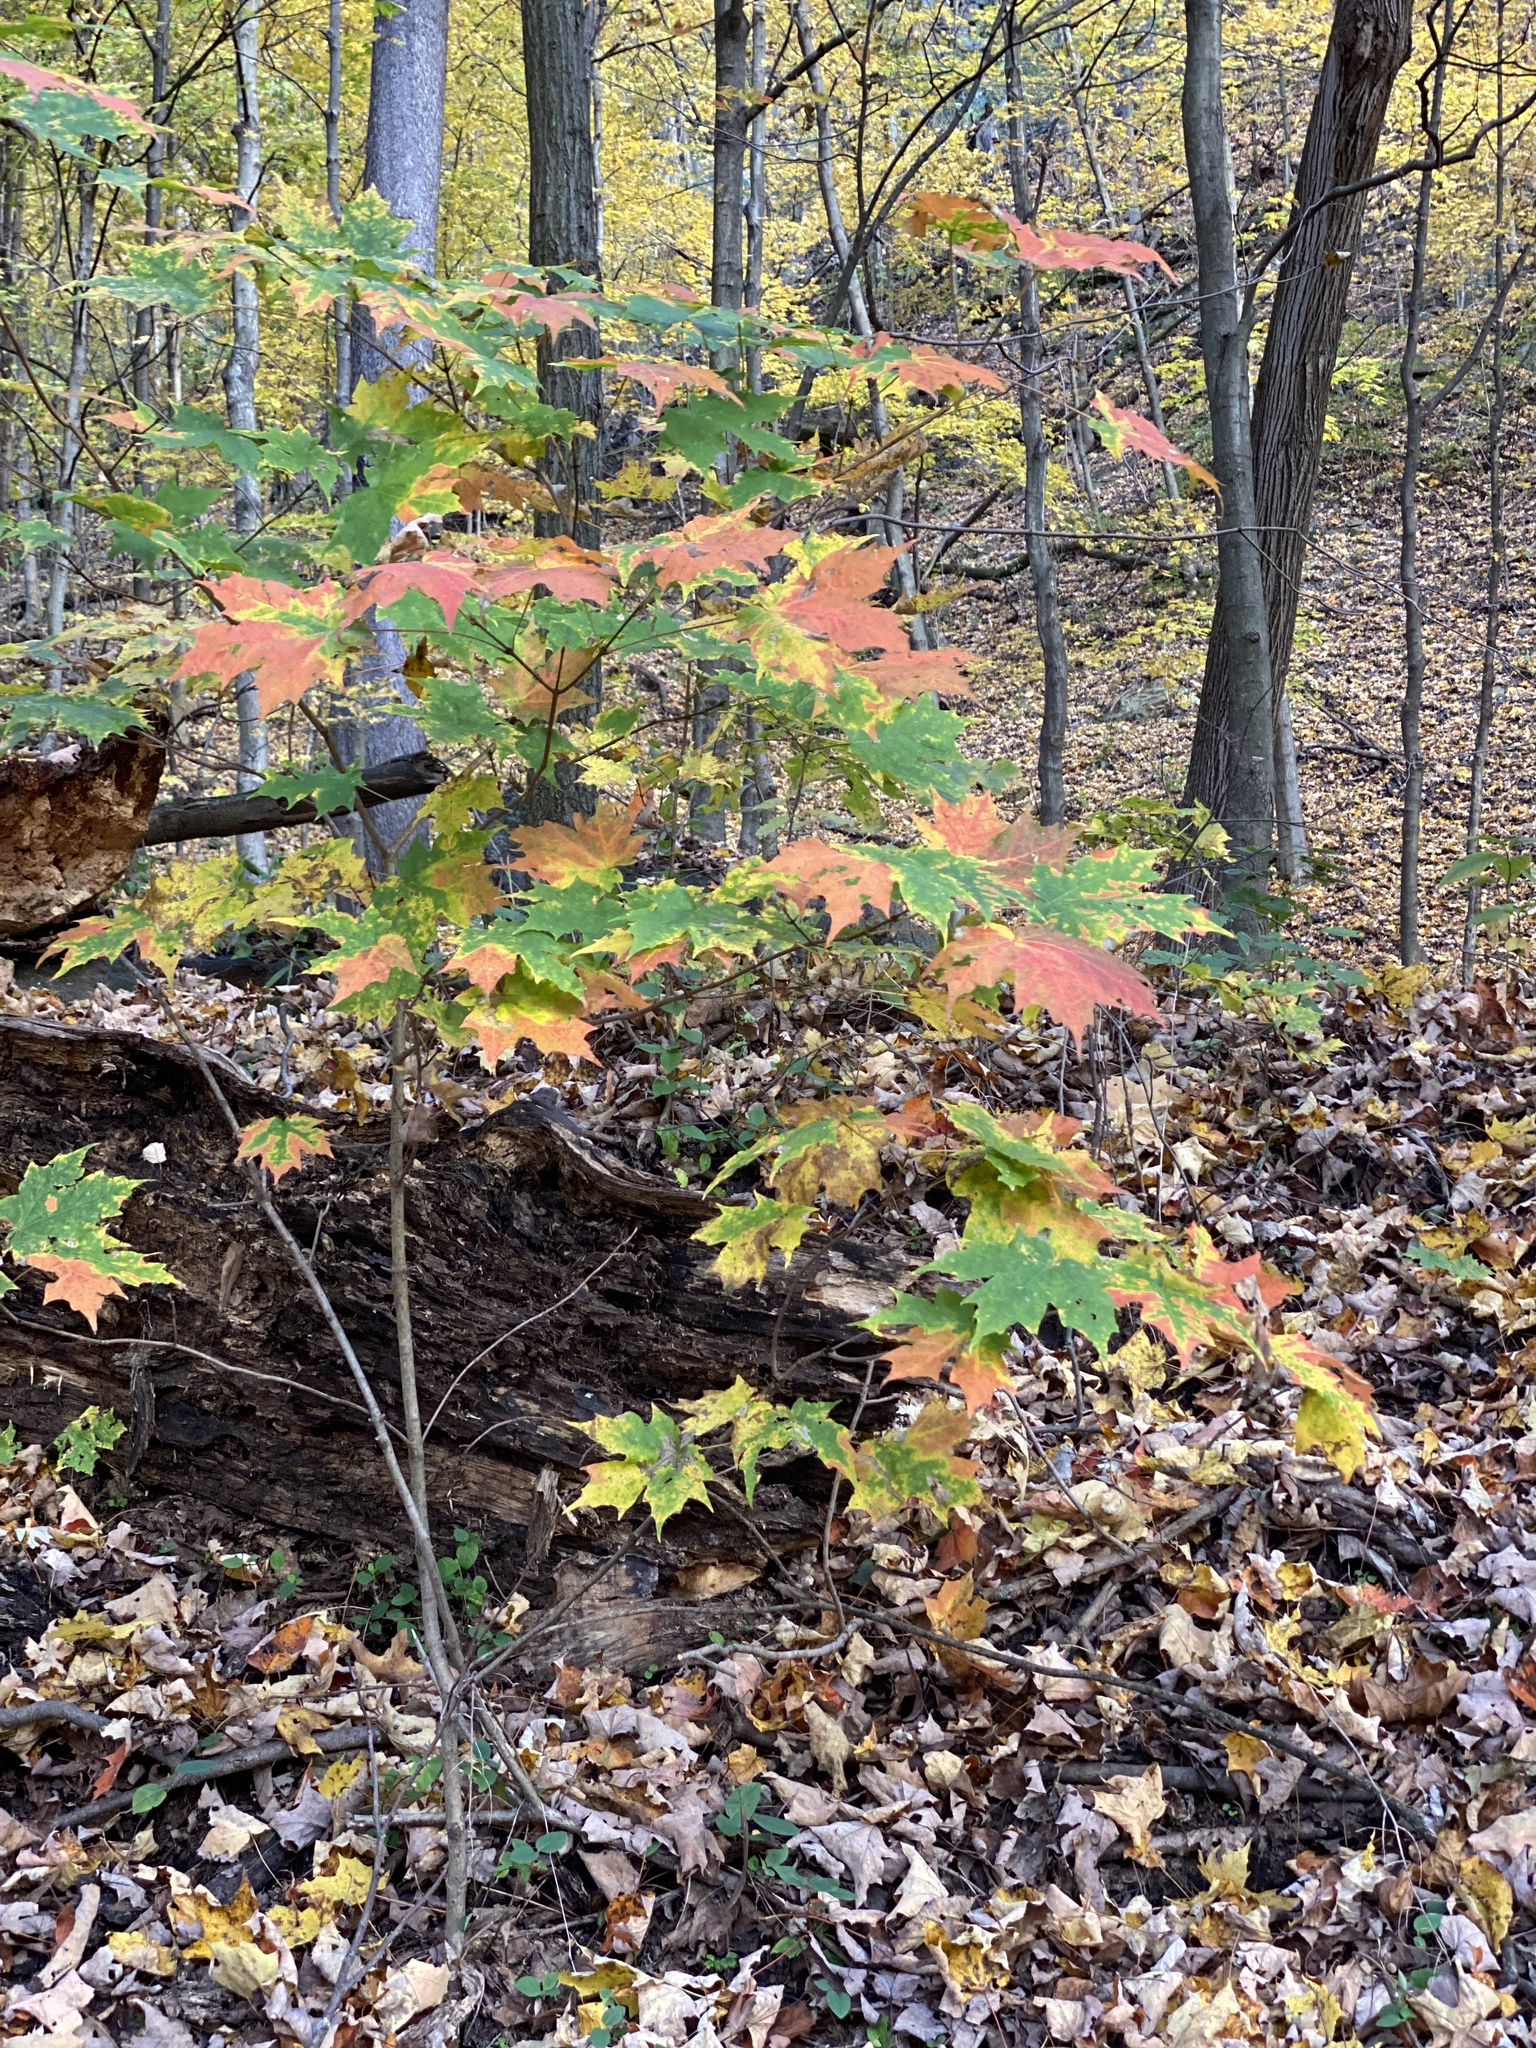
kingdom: Plantae
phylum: Tracheophyta
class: Magnoliopsida
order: Sapindales
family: Sapindaceae
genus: Acer
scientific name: Acer saccharum
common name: Sugar maple
